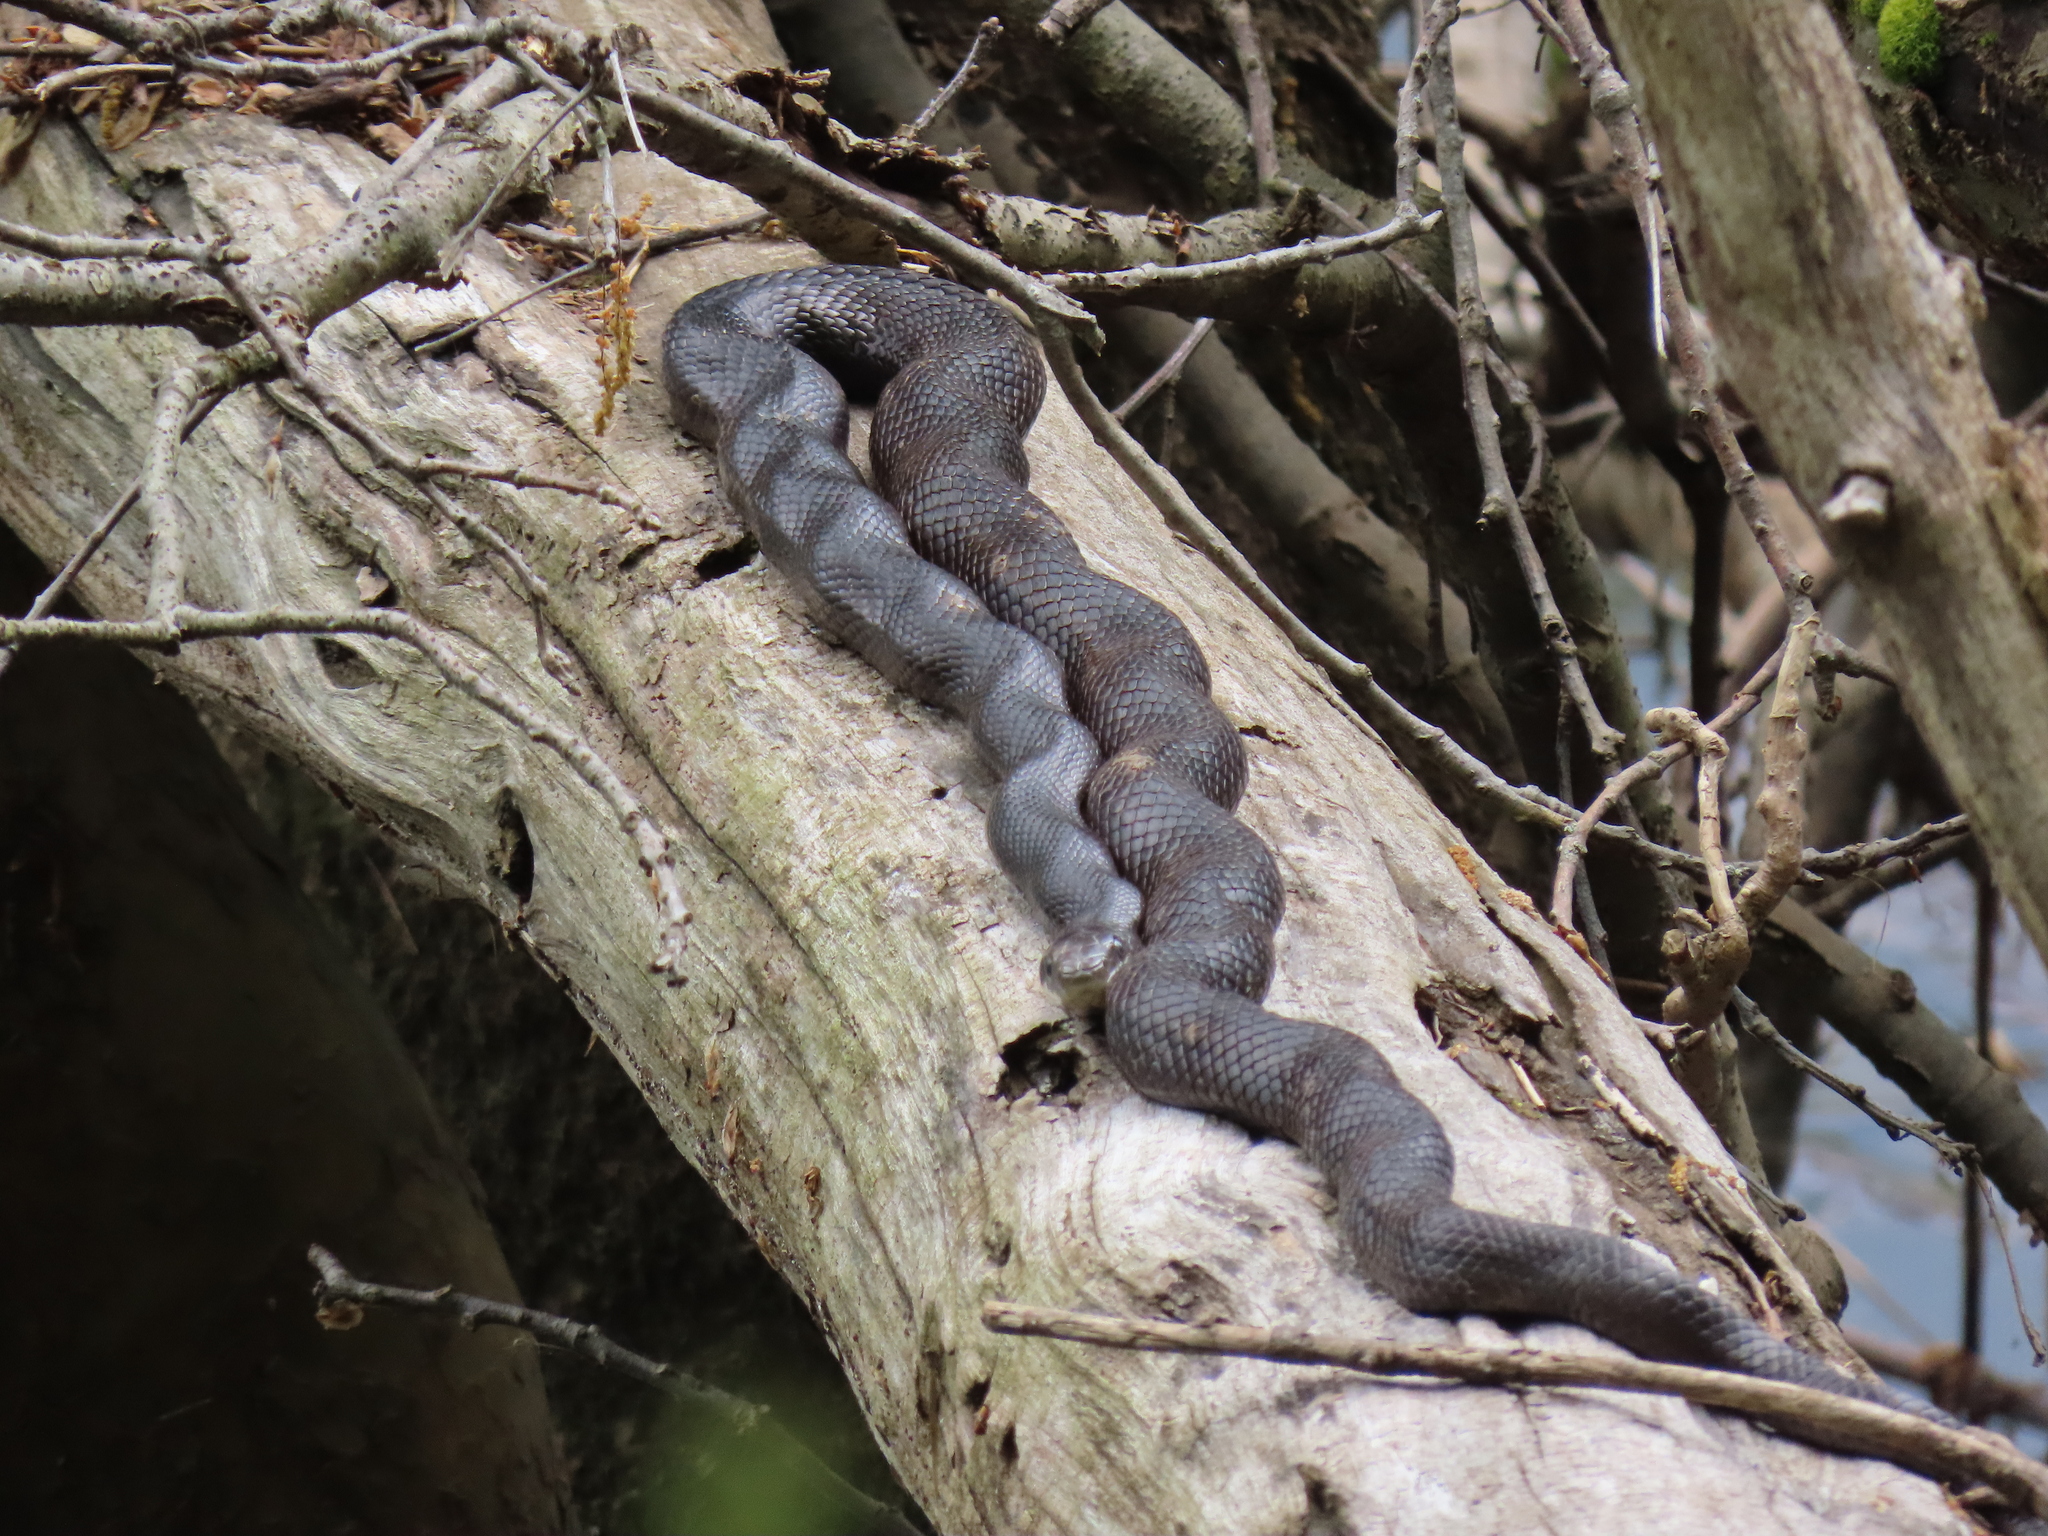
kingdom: Animalia
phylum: Chordata
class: Squamata
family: Colubridae
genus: Pantherophis
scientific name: Pantherophis spiloides
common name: Gray rat snake
